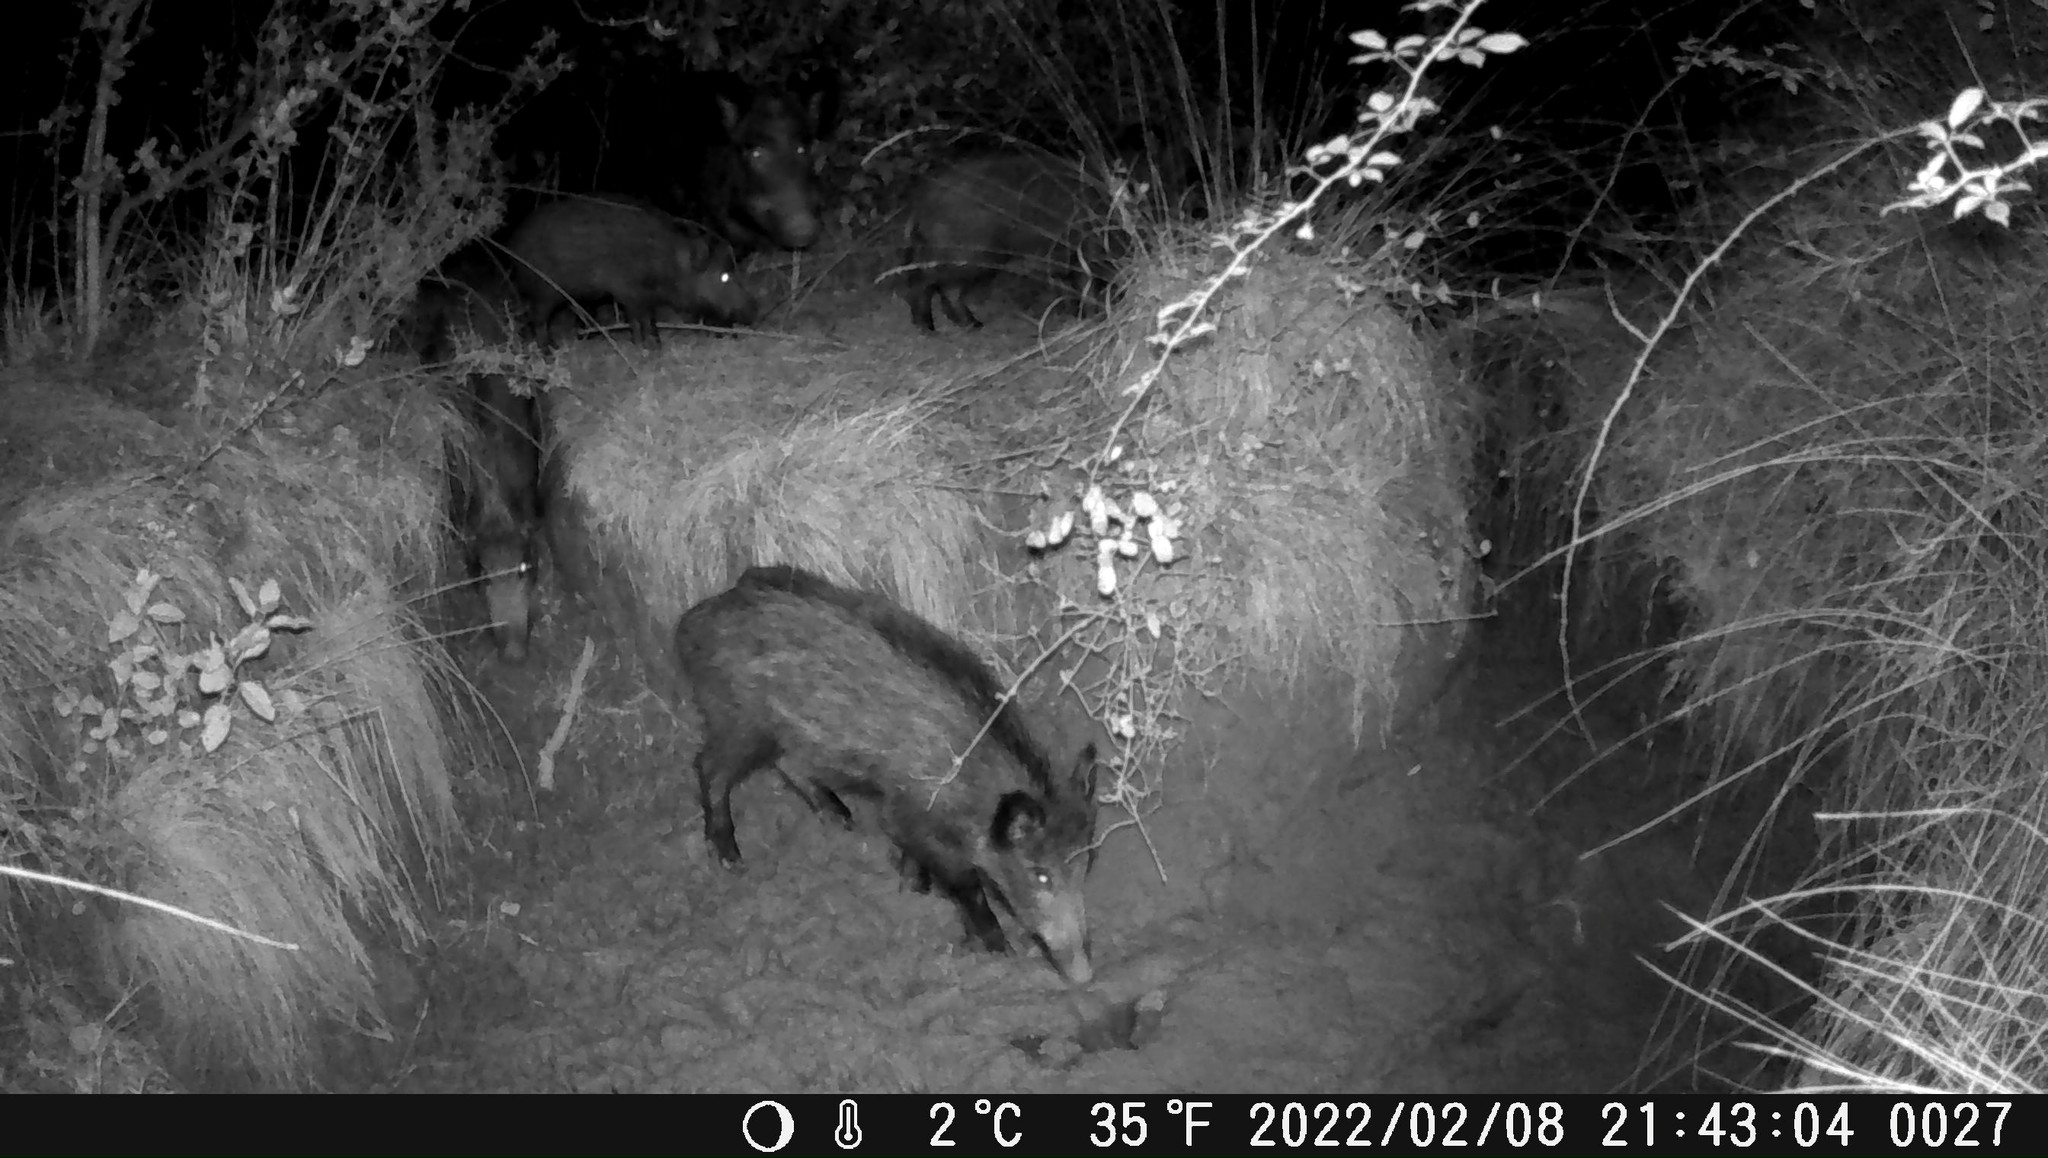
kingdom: Animalia
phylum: Chordata
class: Mammalia
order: Artiodactyla
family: Suidae
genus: Sus
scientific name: Sus scrofa
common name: Wild boar
